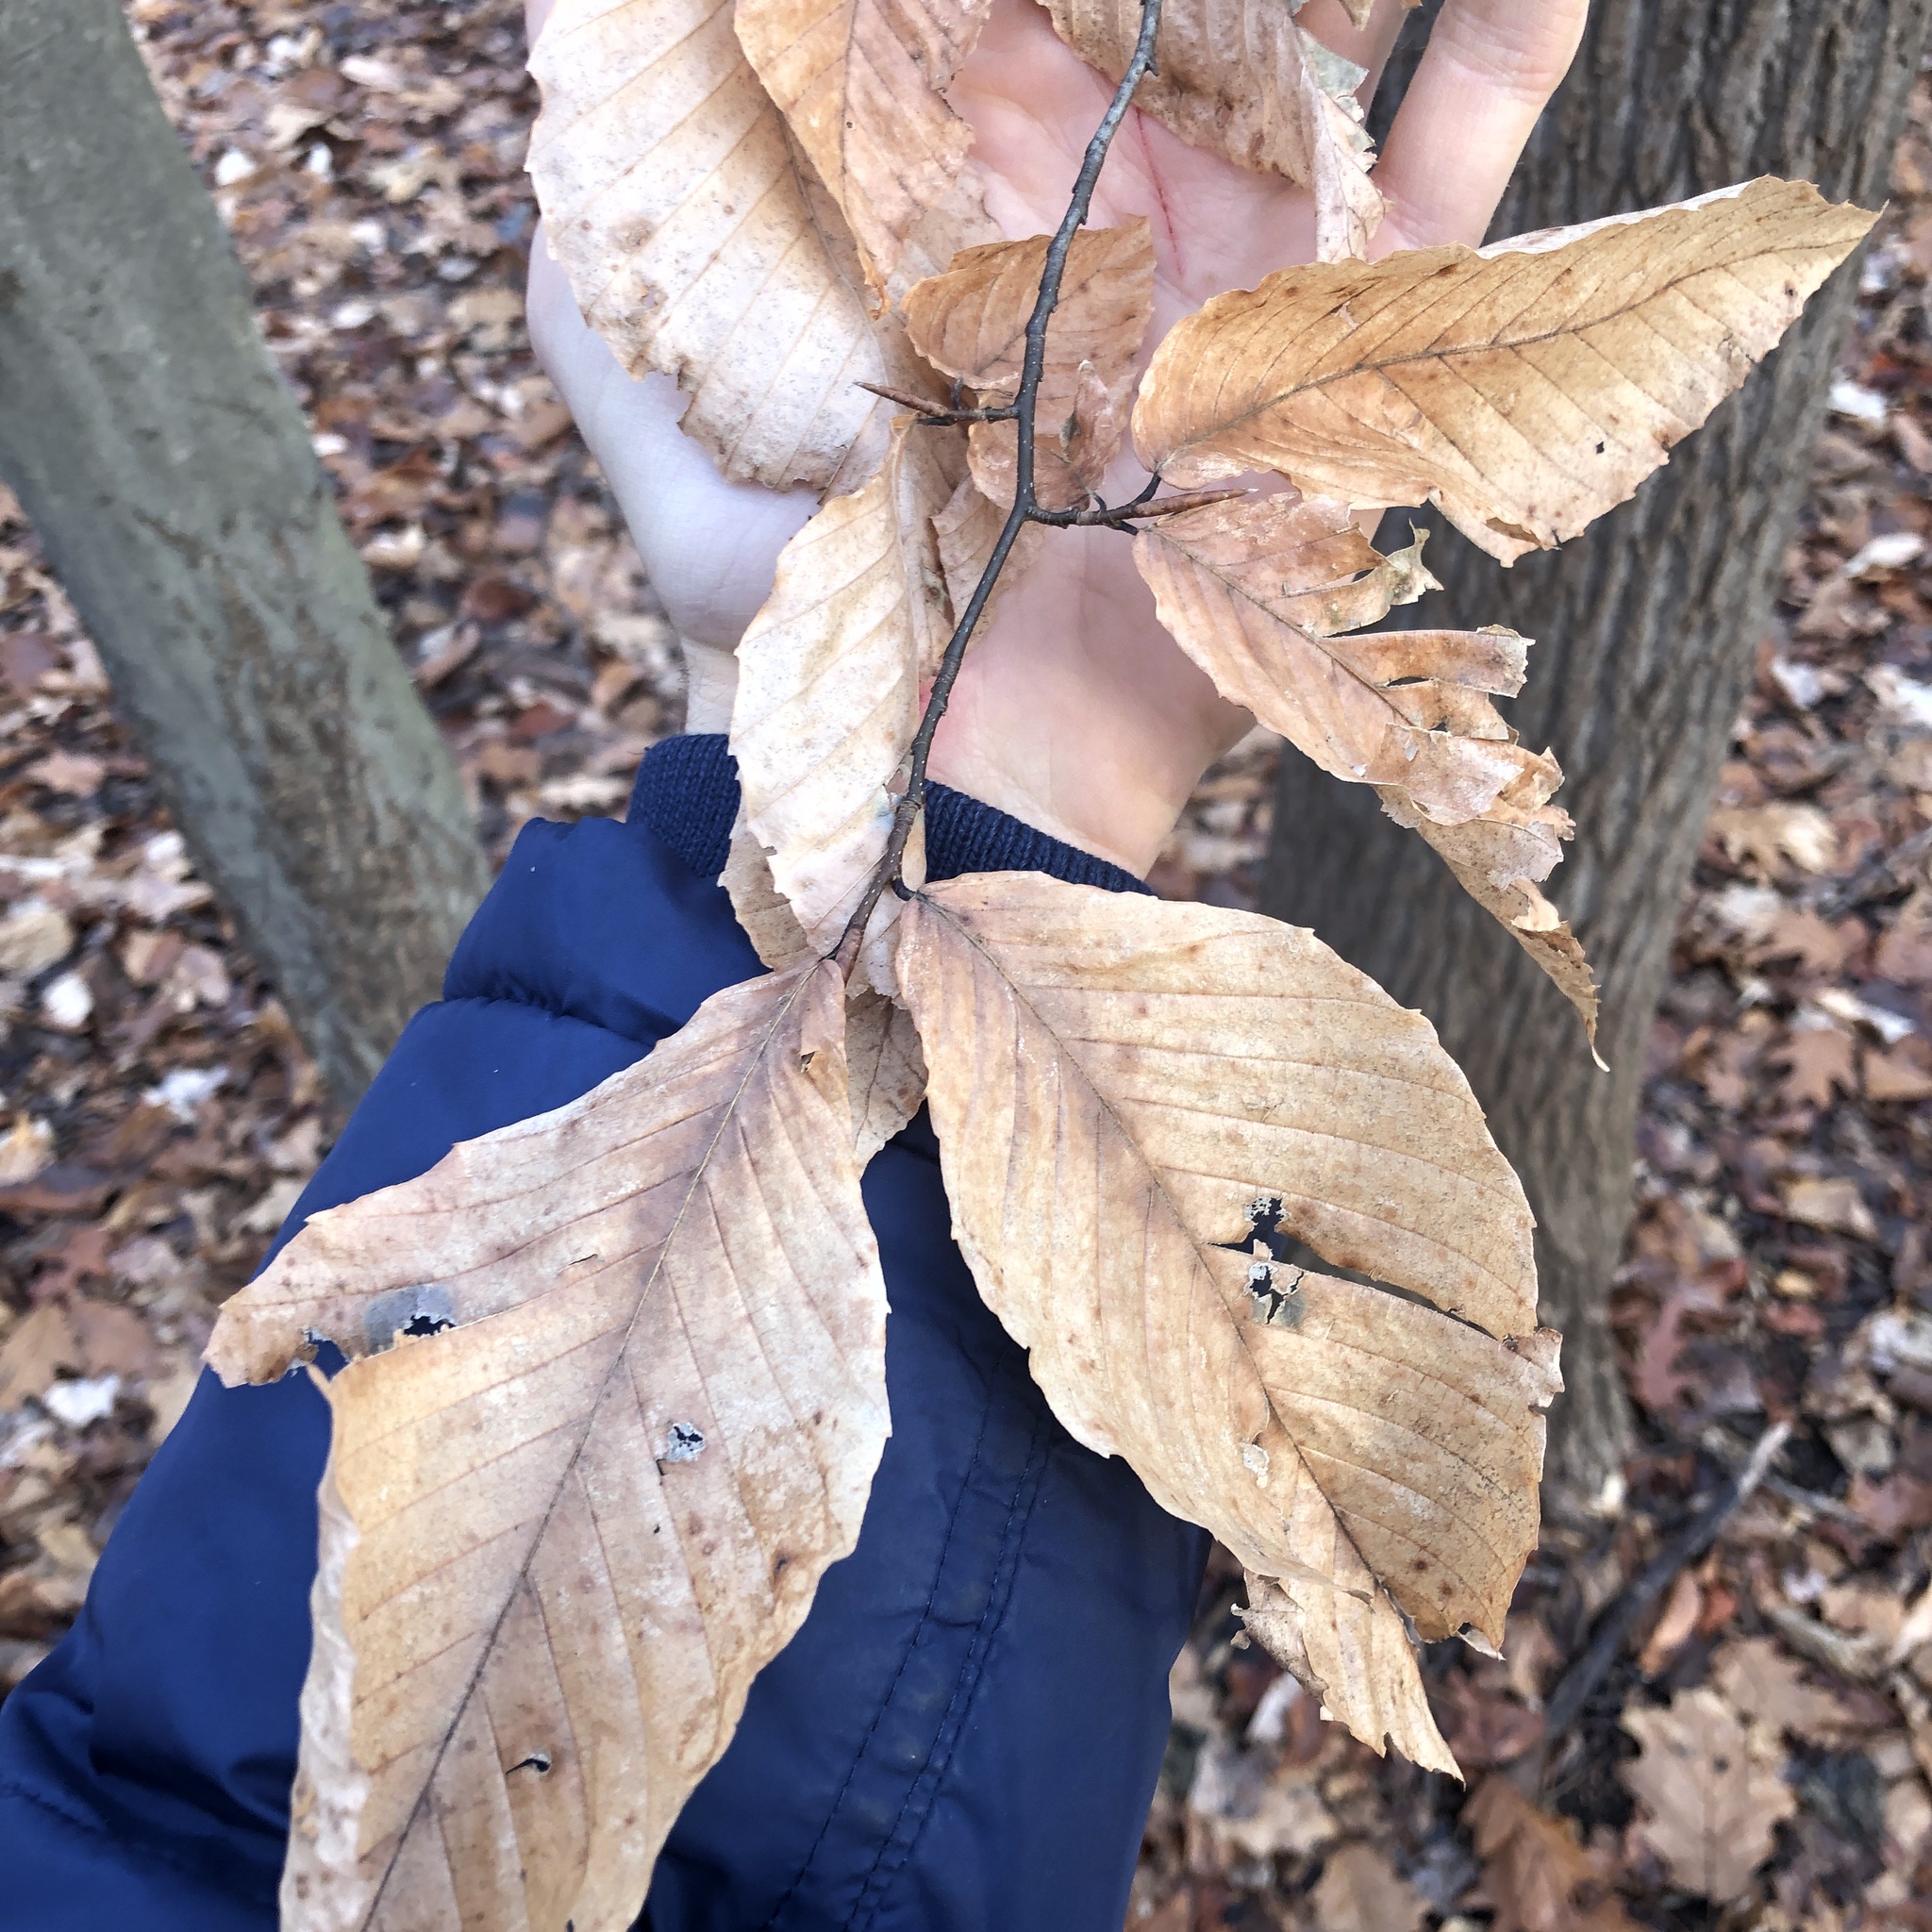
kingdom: Plantae
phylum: Tracheophyta
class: Magnoliopsida
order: Fagales
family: Fagaceae
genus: Fagus
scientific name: Fagus grandifolia
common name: American beech
